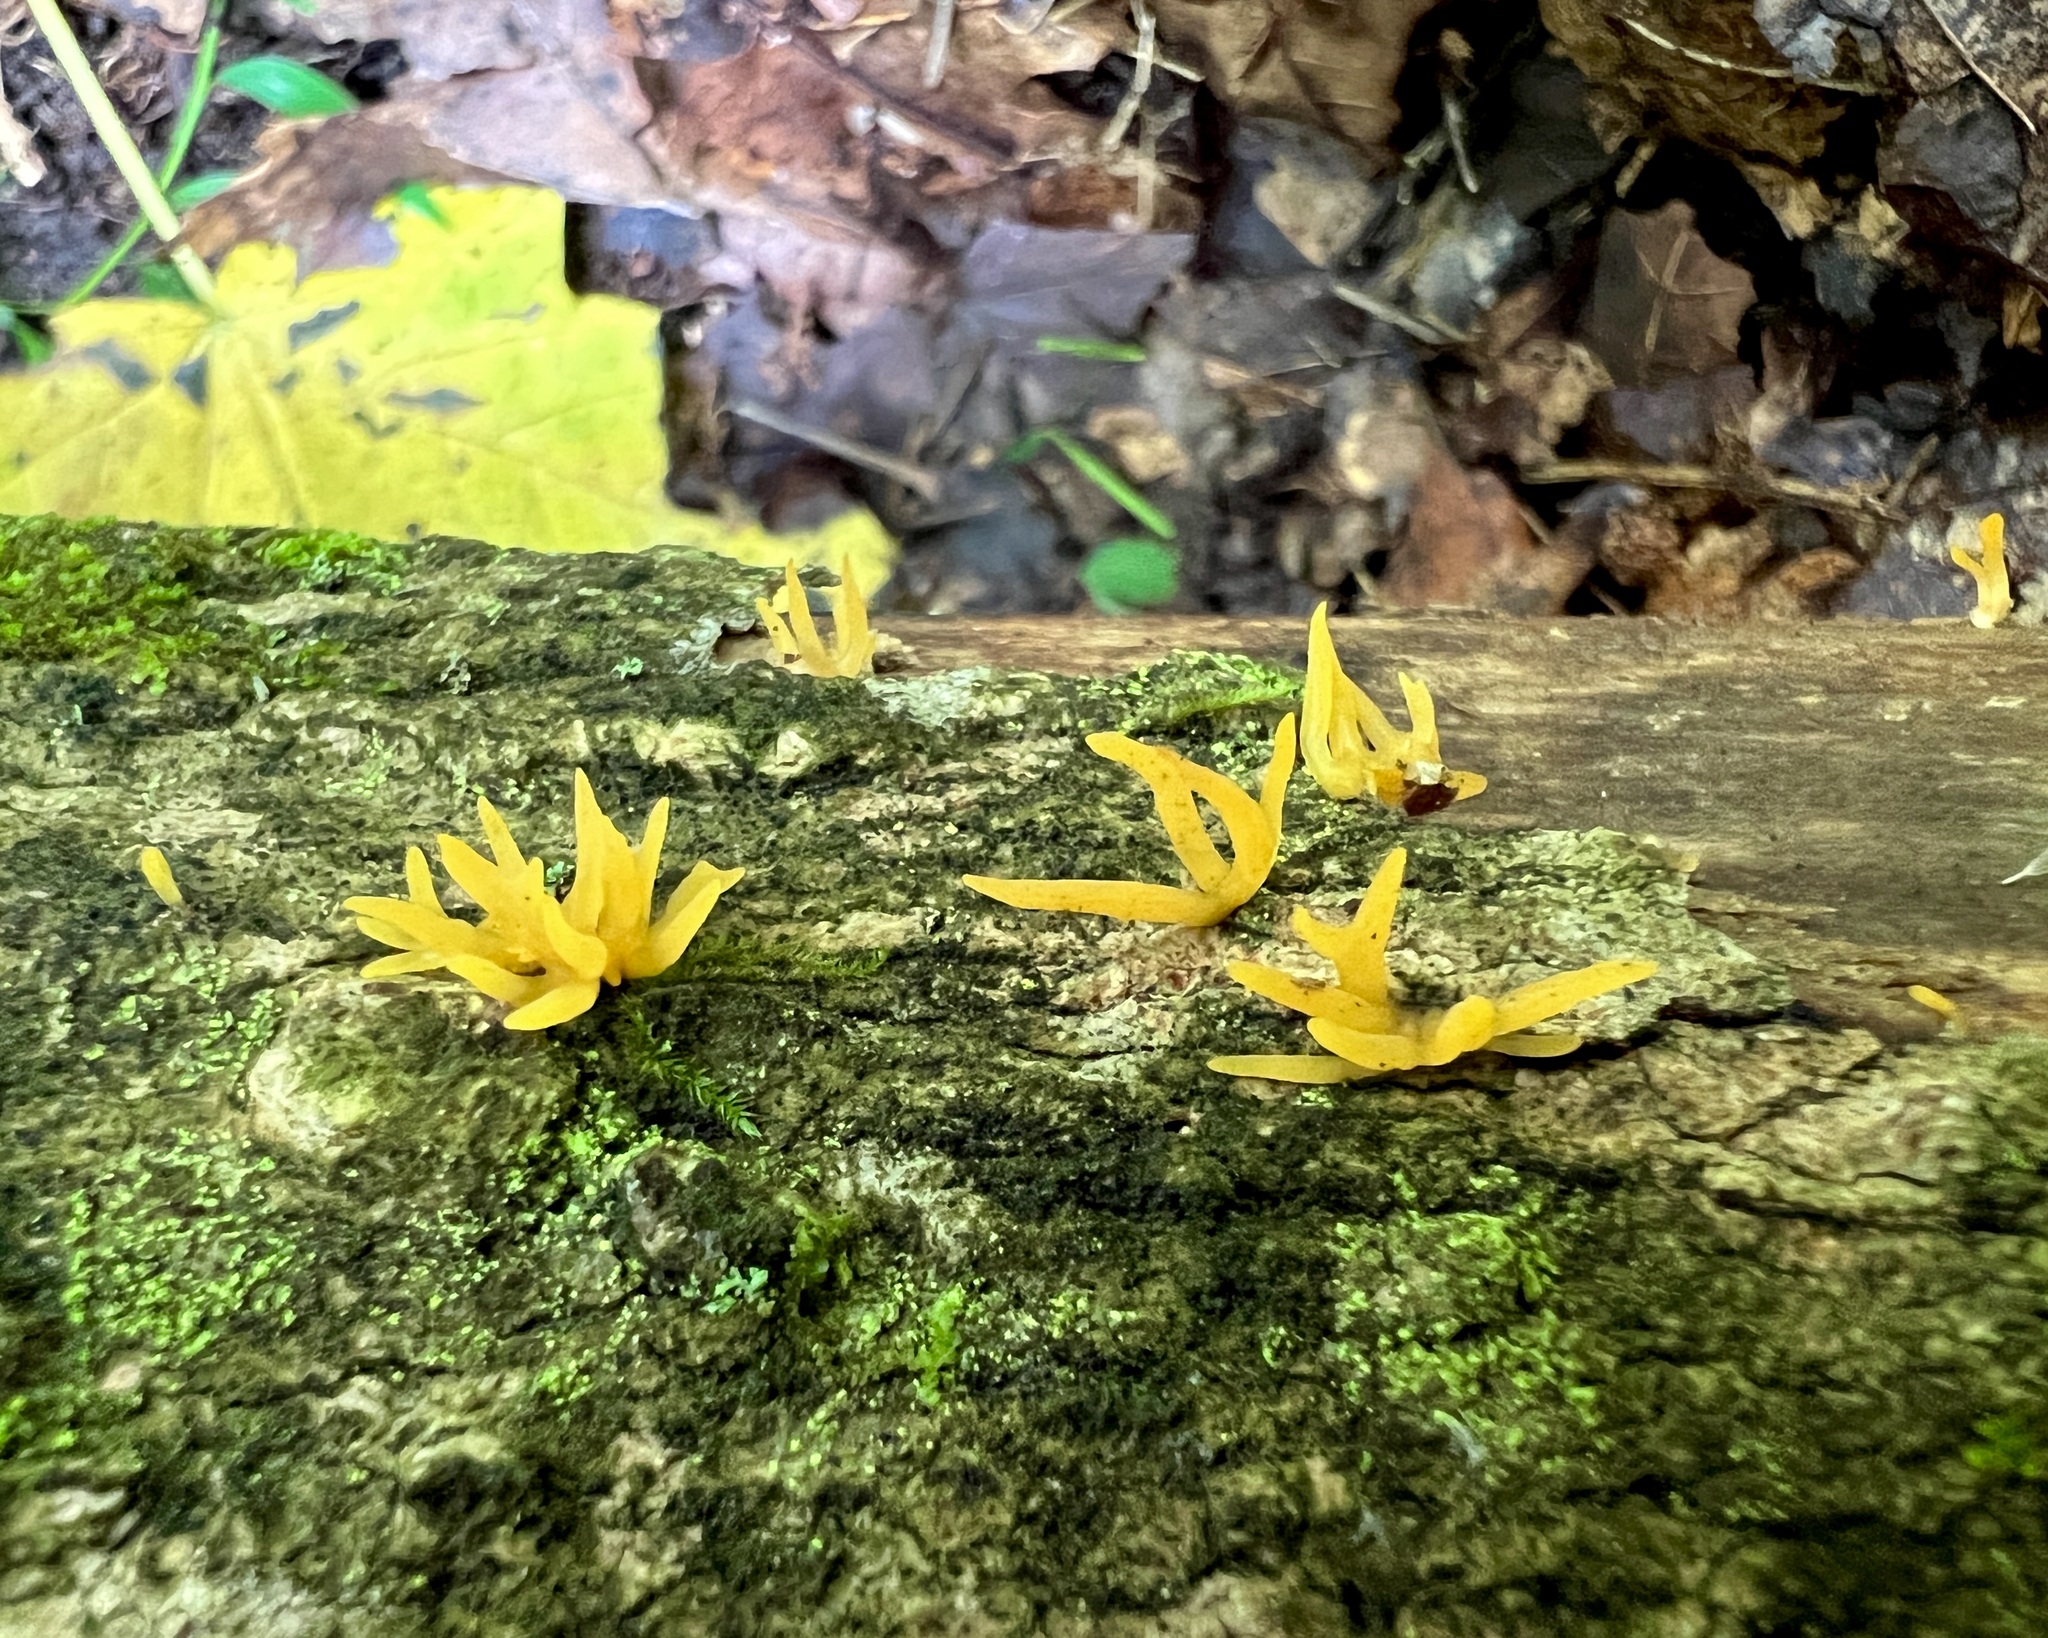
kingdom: Fungi
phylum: Basidiomycota
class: Dacrymycetes
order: Dacrymycetales
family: Dacrymycetaceae
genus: Calocera
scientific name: Calocera cornea
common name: Small stagshorn
